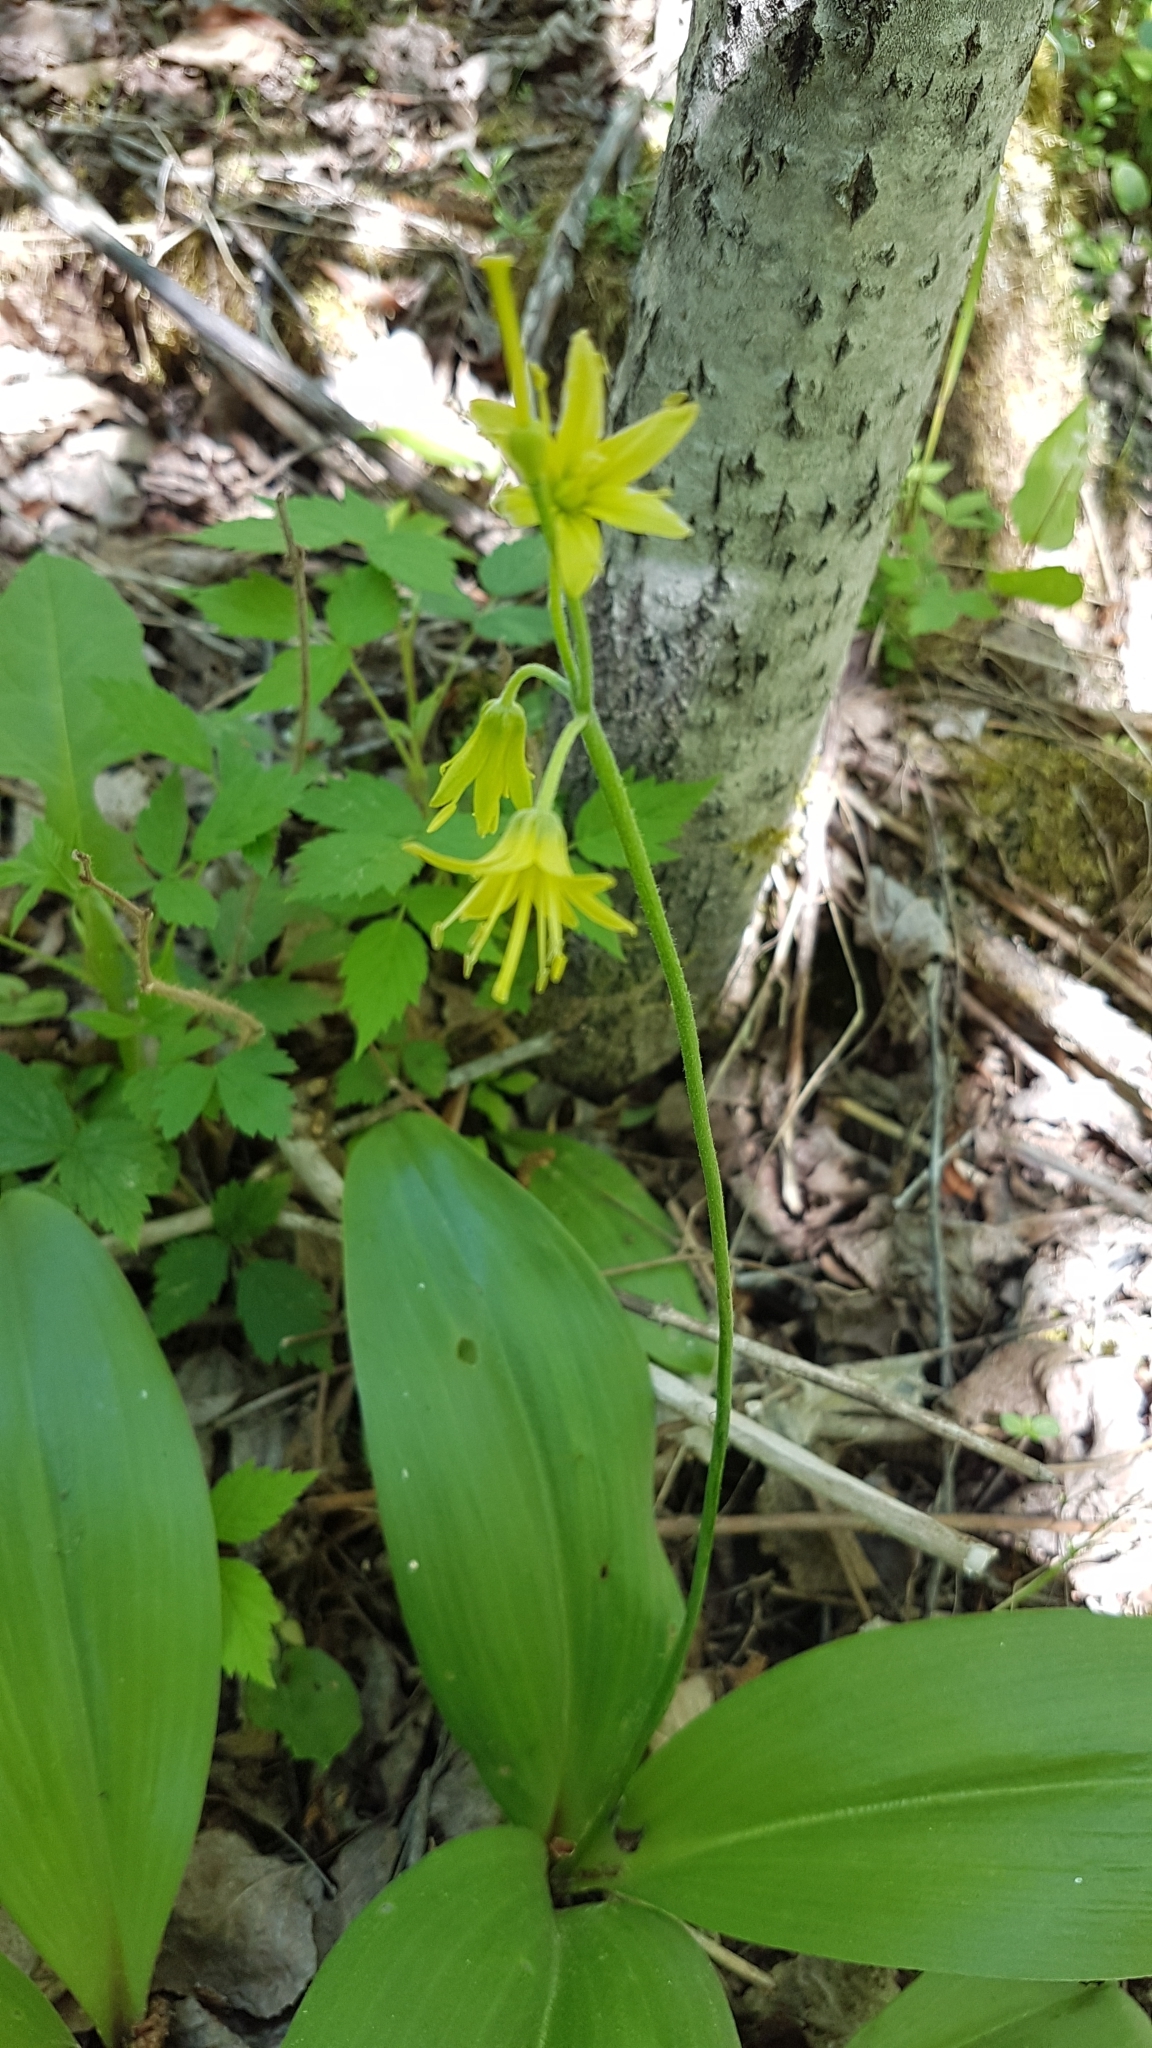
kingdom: Plantae
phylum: Tracheophyta
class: Liliopsida
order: Liliales
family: Liliaceae
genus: Clintonia
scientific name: Clintonia borealis
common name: Yellow clintonia
